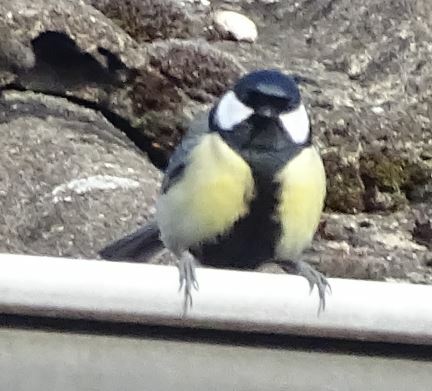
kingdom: Animalia
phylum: Chordata
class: Aves
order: Passeriformes
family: Paridae
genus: Parus
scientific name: Parus major
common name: Great tit
